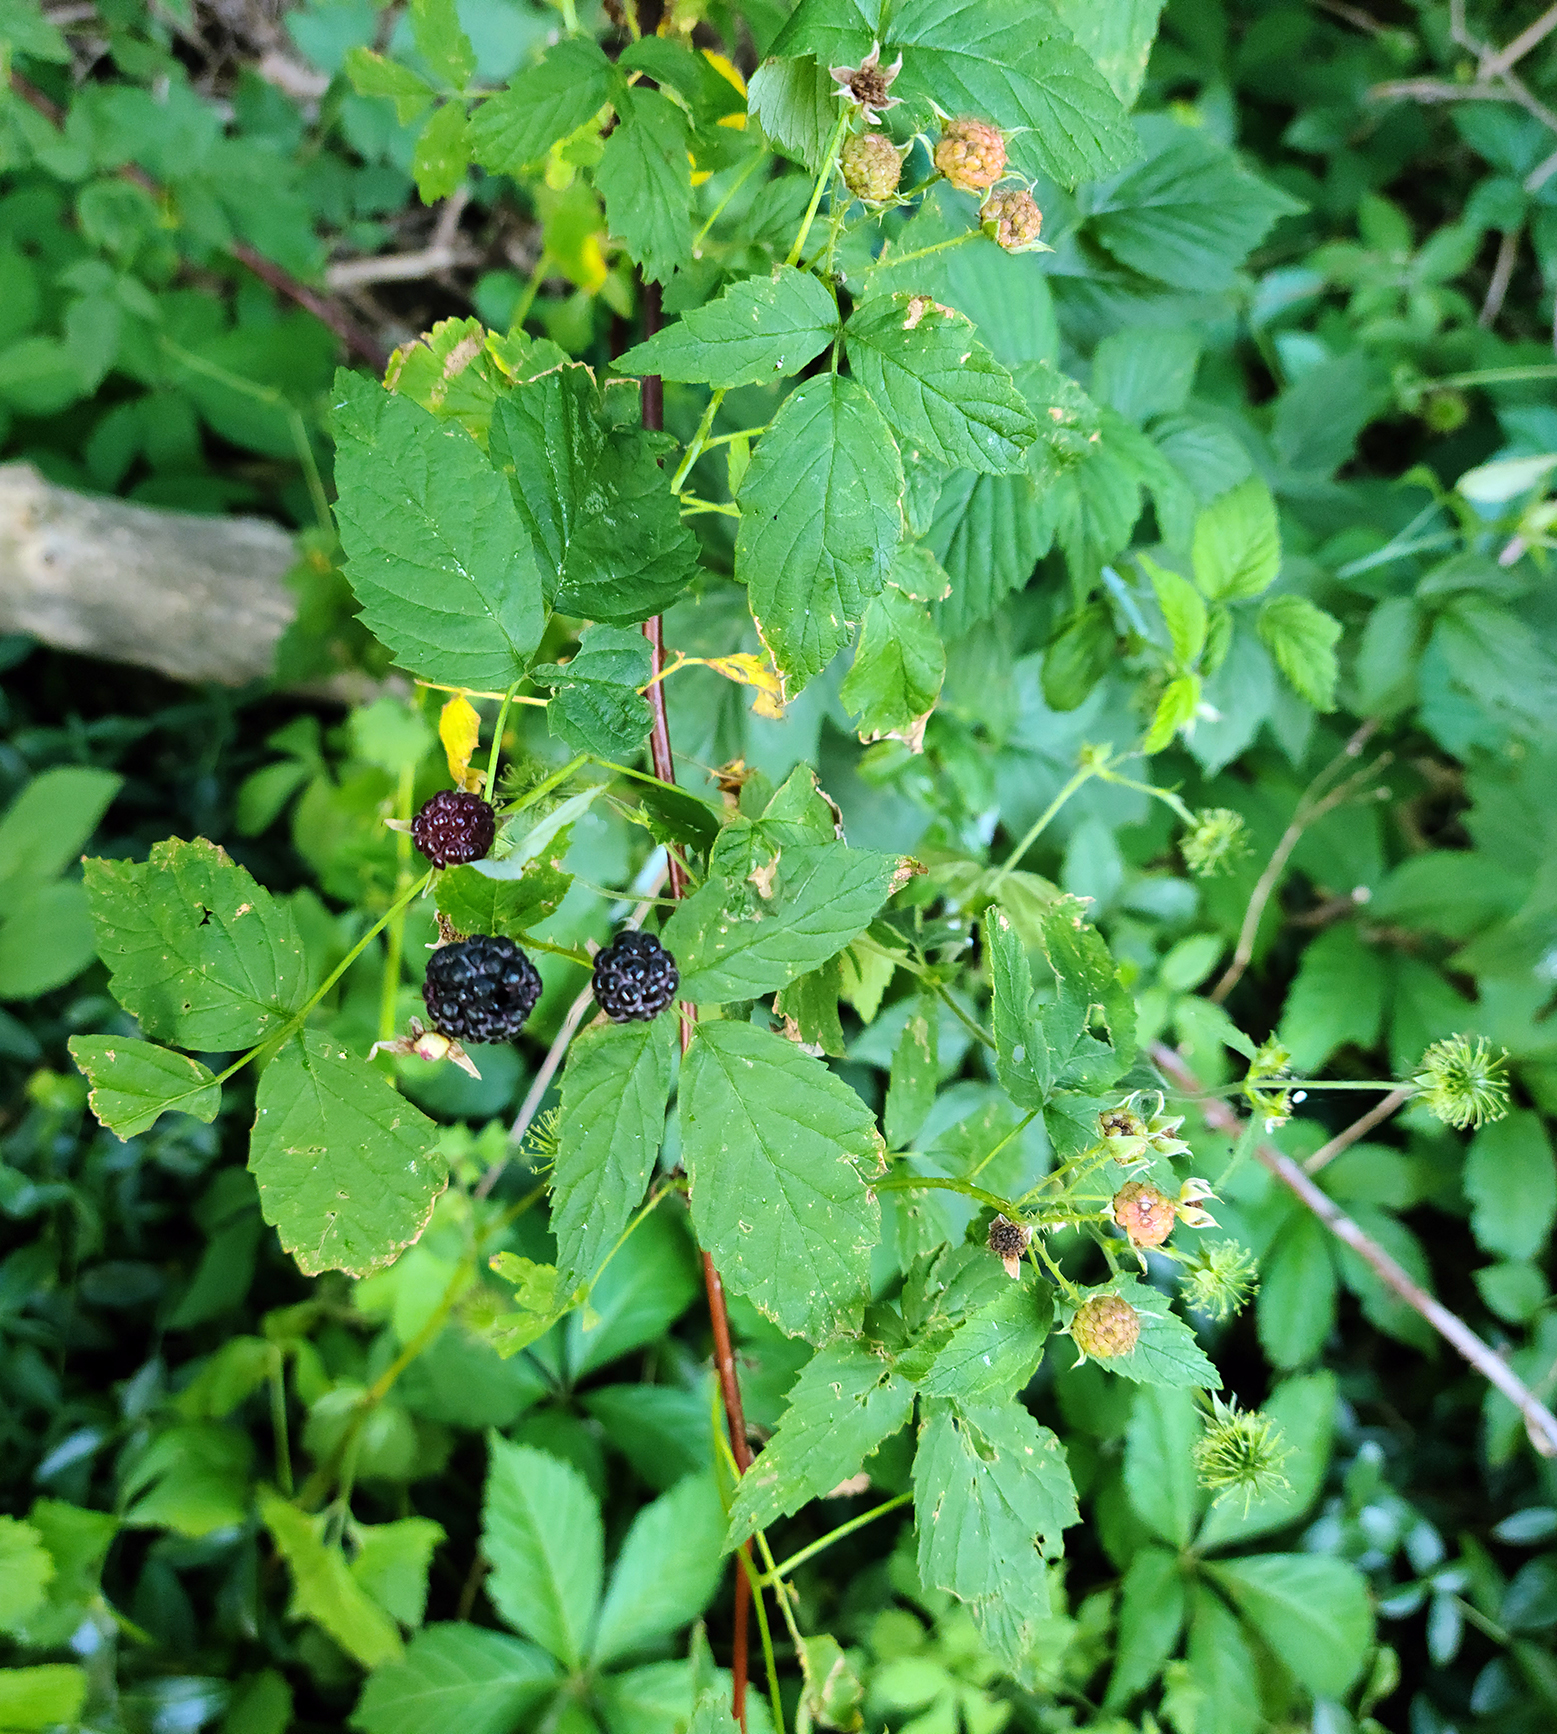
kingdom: Plantae
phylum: Tracheophyta
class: Magnoliopsida
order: Rosales
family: Rosaceae
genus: Rubus
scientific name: Rubus occidentalis
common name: Black raspberry
